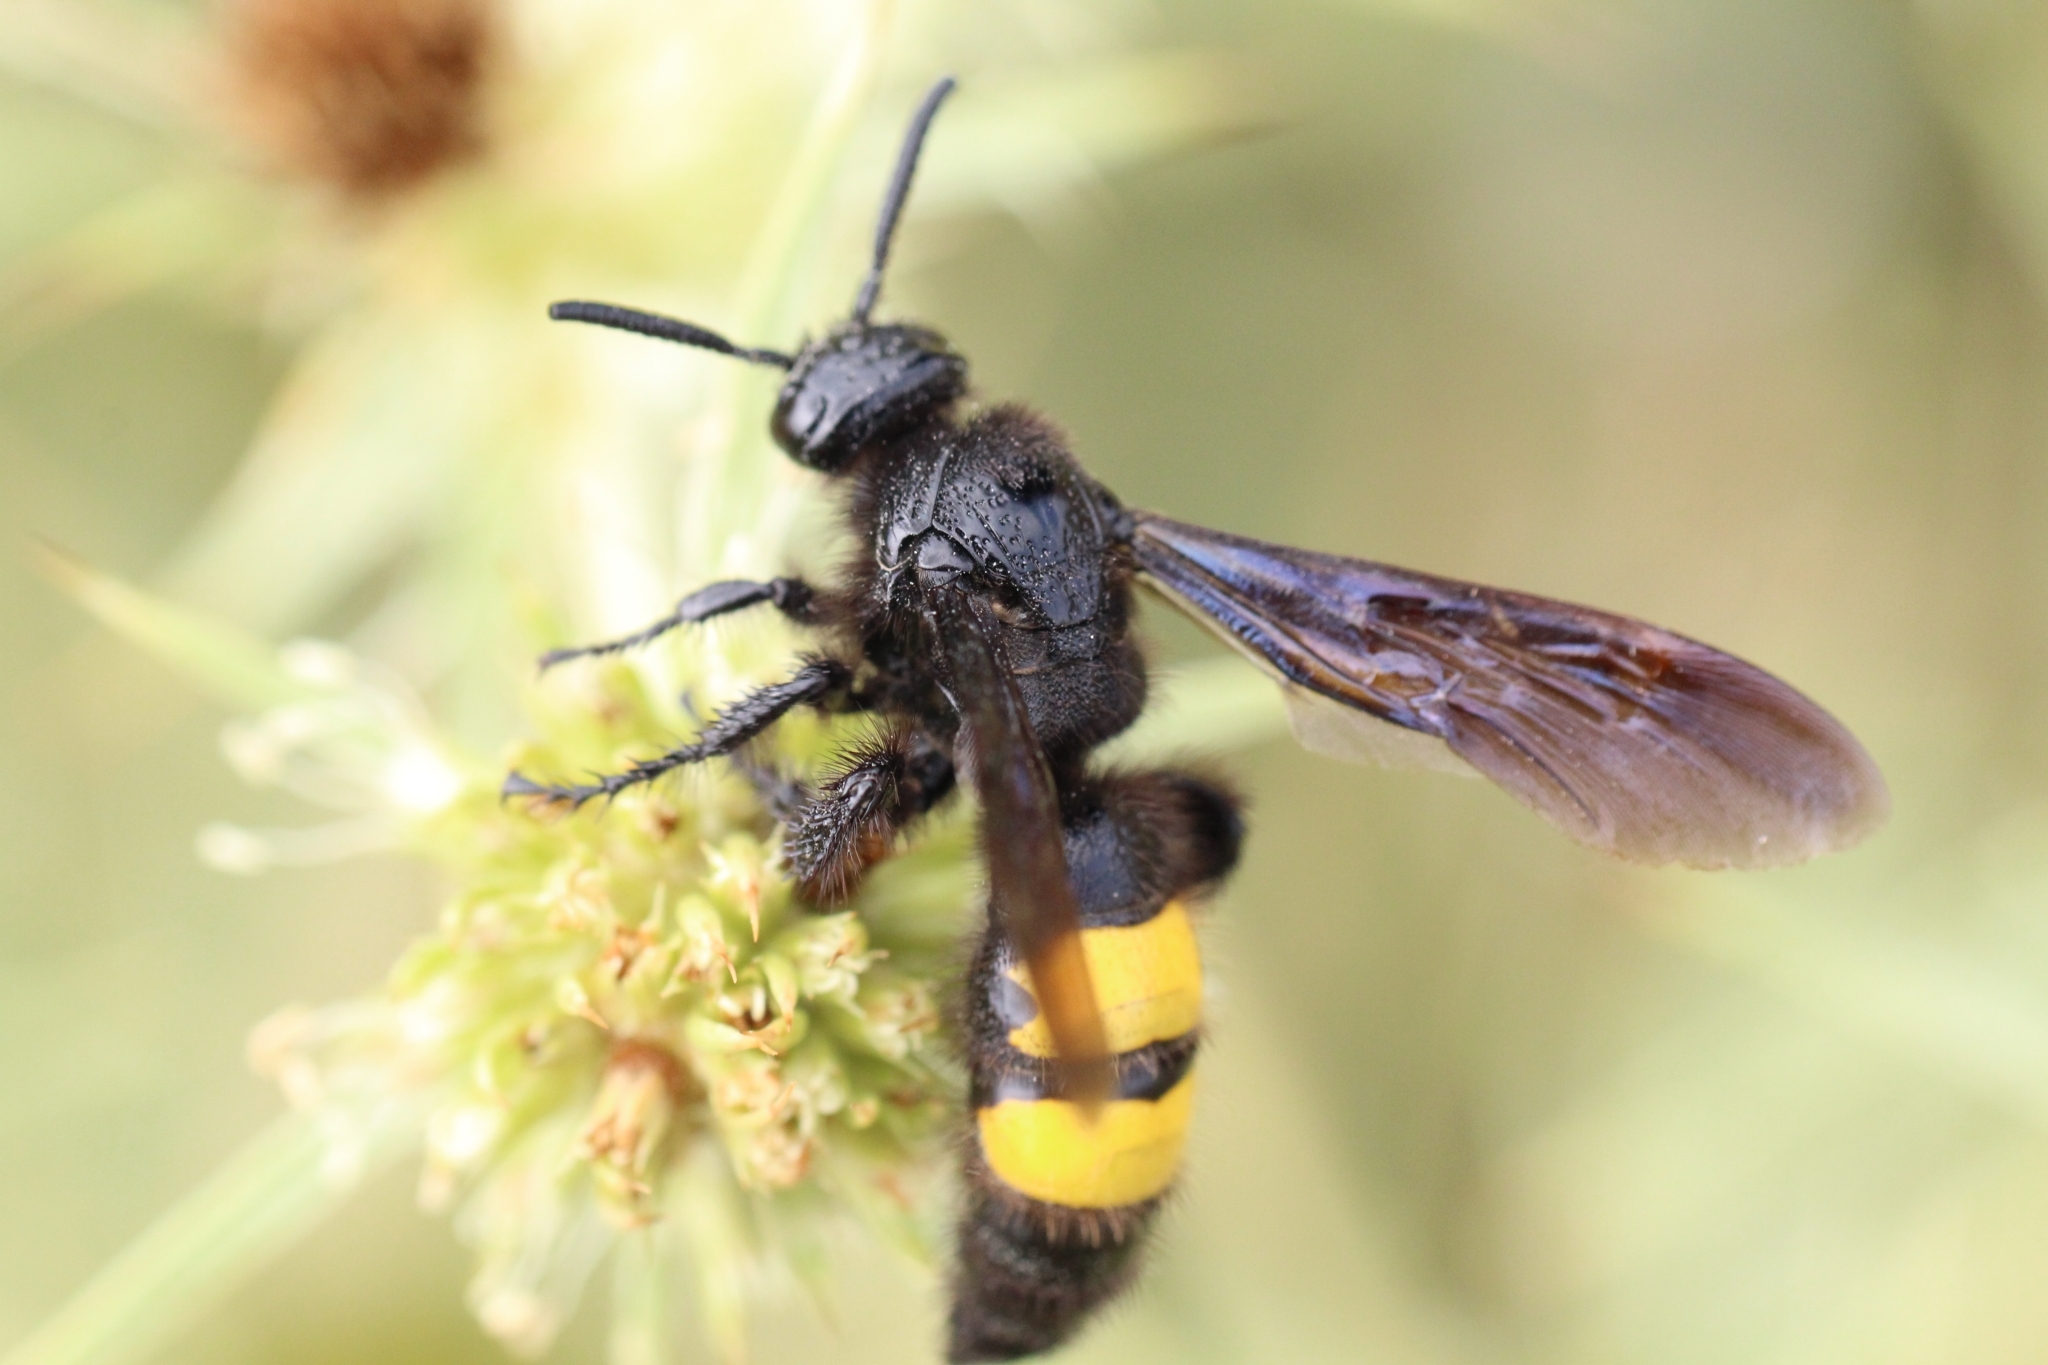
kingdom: Animalia
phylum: Arthropoda
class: Insecta
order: Hymenoptera
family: Scoliidae
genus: Scolia
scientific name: Scolia hirta
